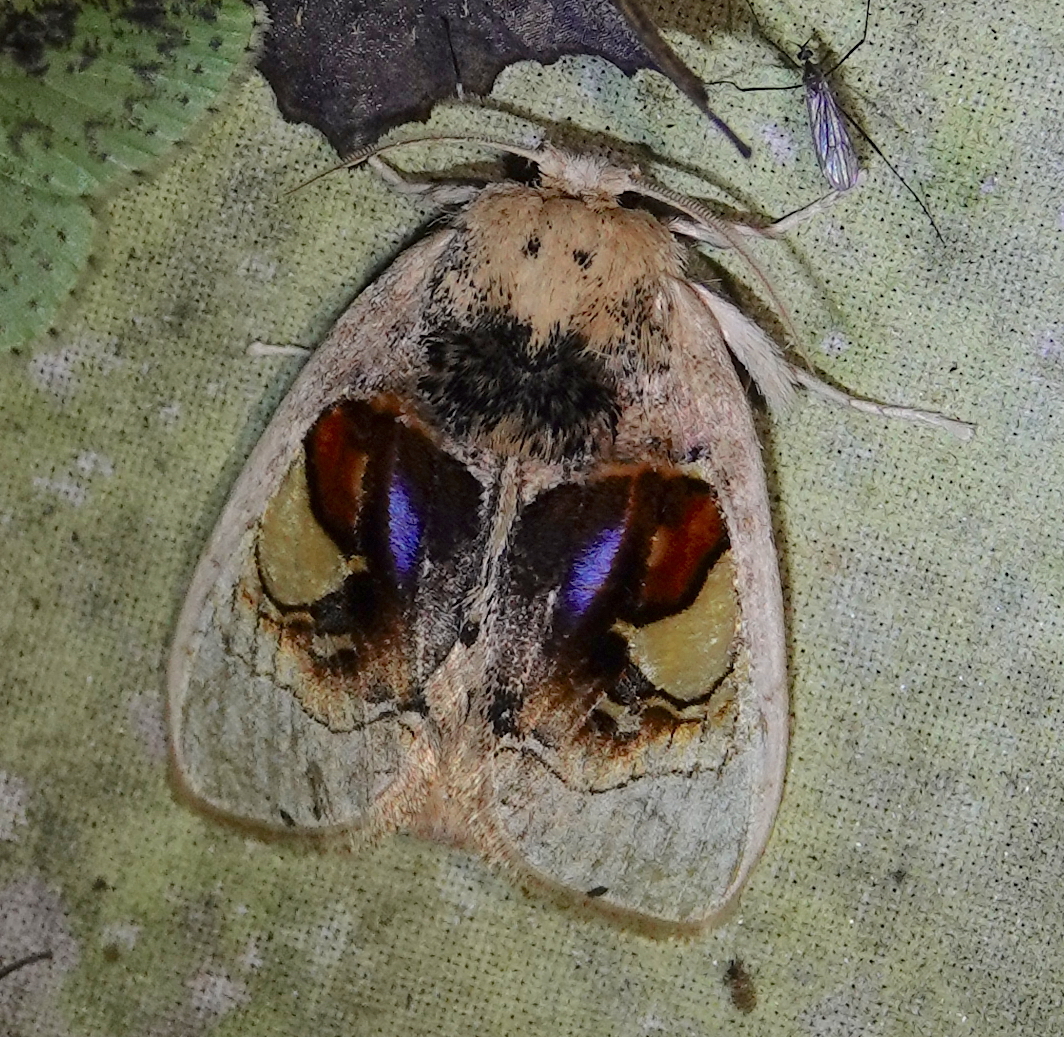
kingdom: Animalia
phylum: Arthropoda
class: Insecta
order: Lepidoptera
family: Psychidae
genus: Arrhenophanes
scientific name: Arrhenophanes perspicilla
